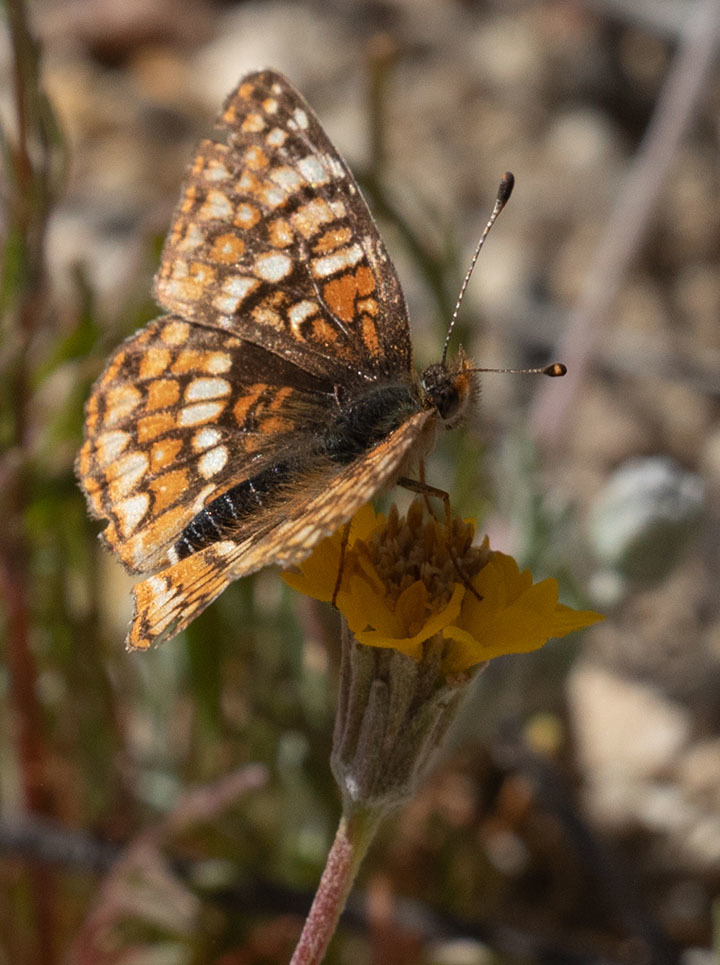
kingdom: Animalia
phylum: Arthropoda
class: Insecta
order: Lepidoptera
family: Nymphalidae
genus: Chlosyne
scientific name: Chlosyne gabbii
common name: Gabb's checkerspot
